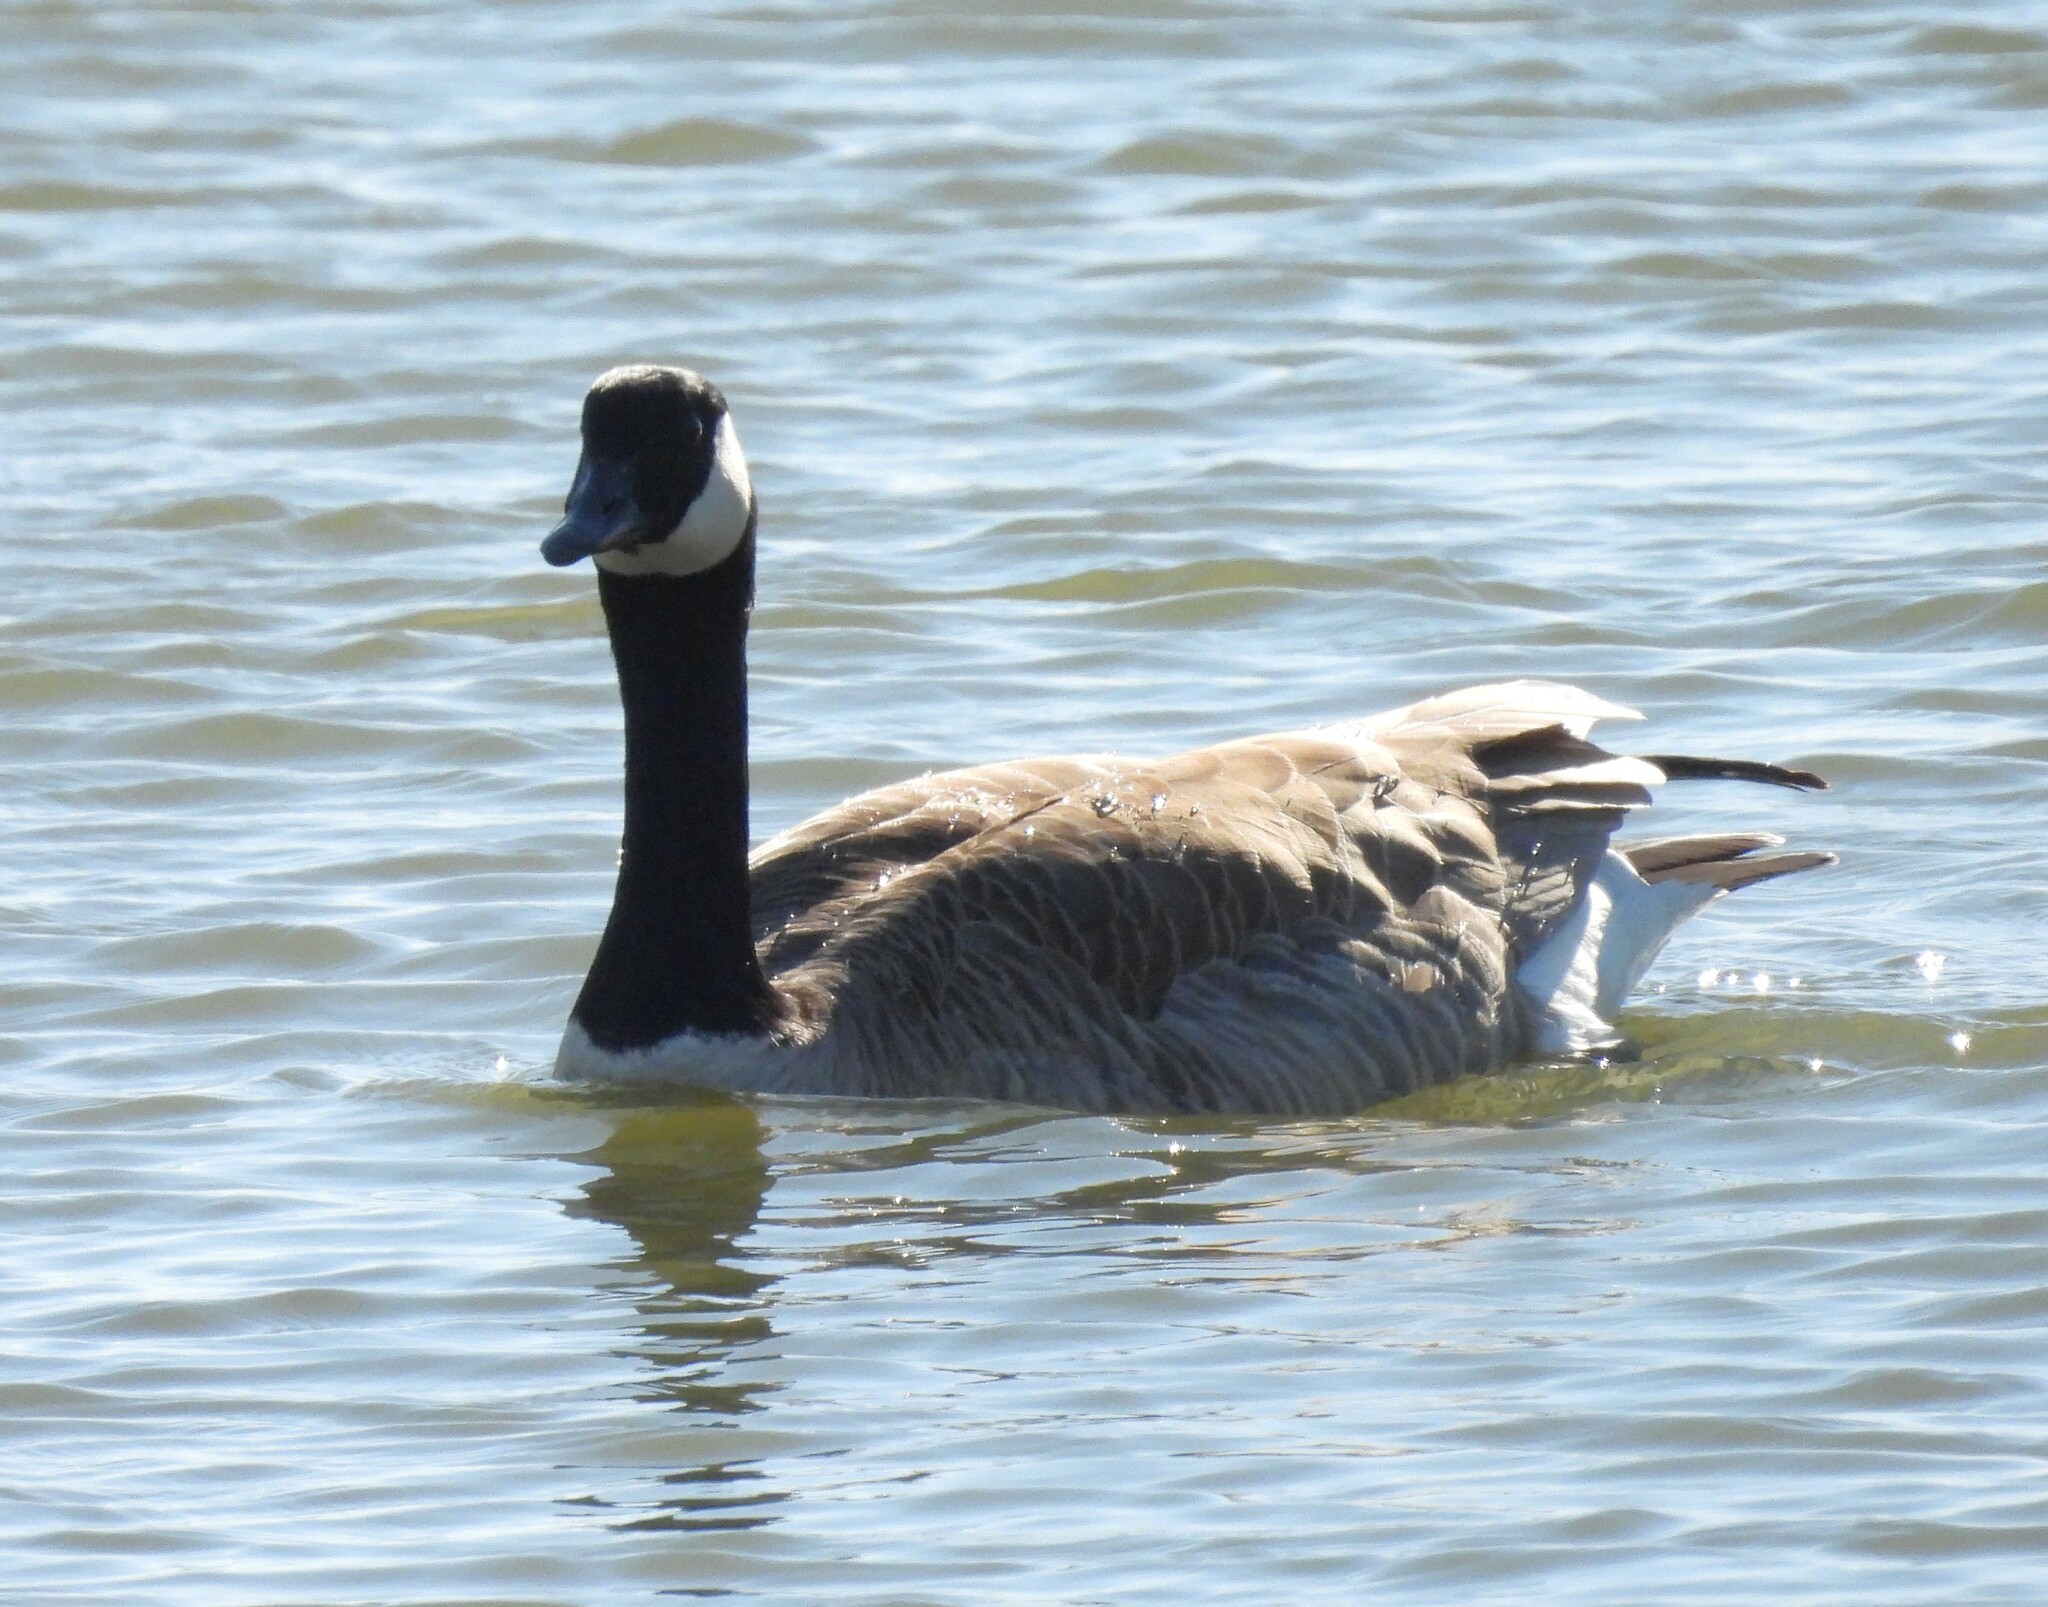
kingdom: Animalia
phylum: Chordata
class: Aves
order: Anseriformes
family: Anatidae
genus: Branta
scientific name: Branta canadensis
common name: Canada goose
